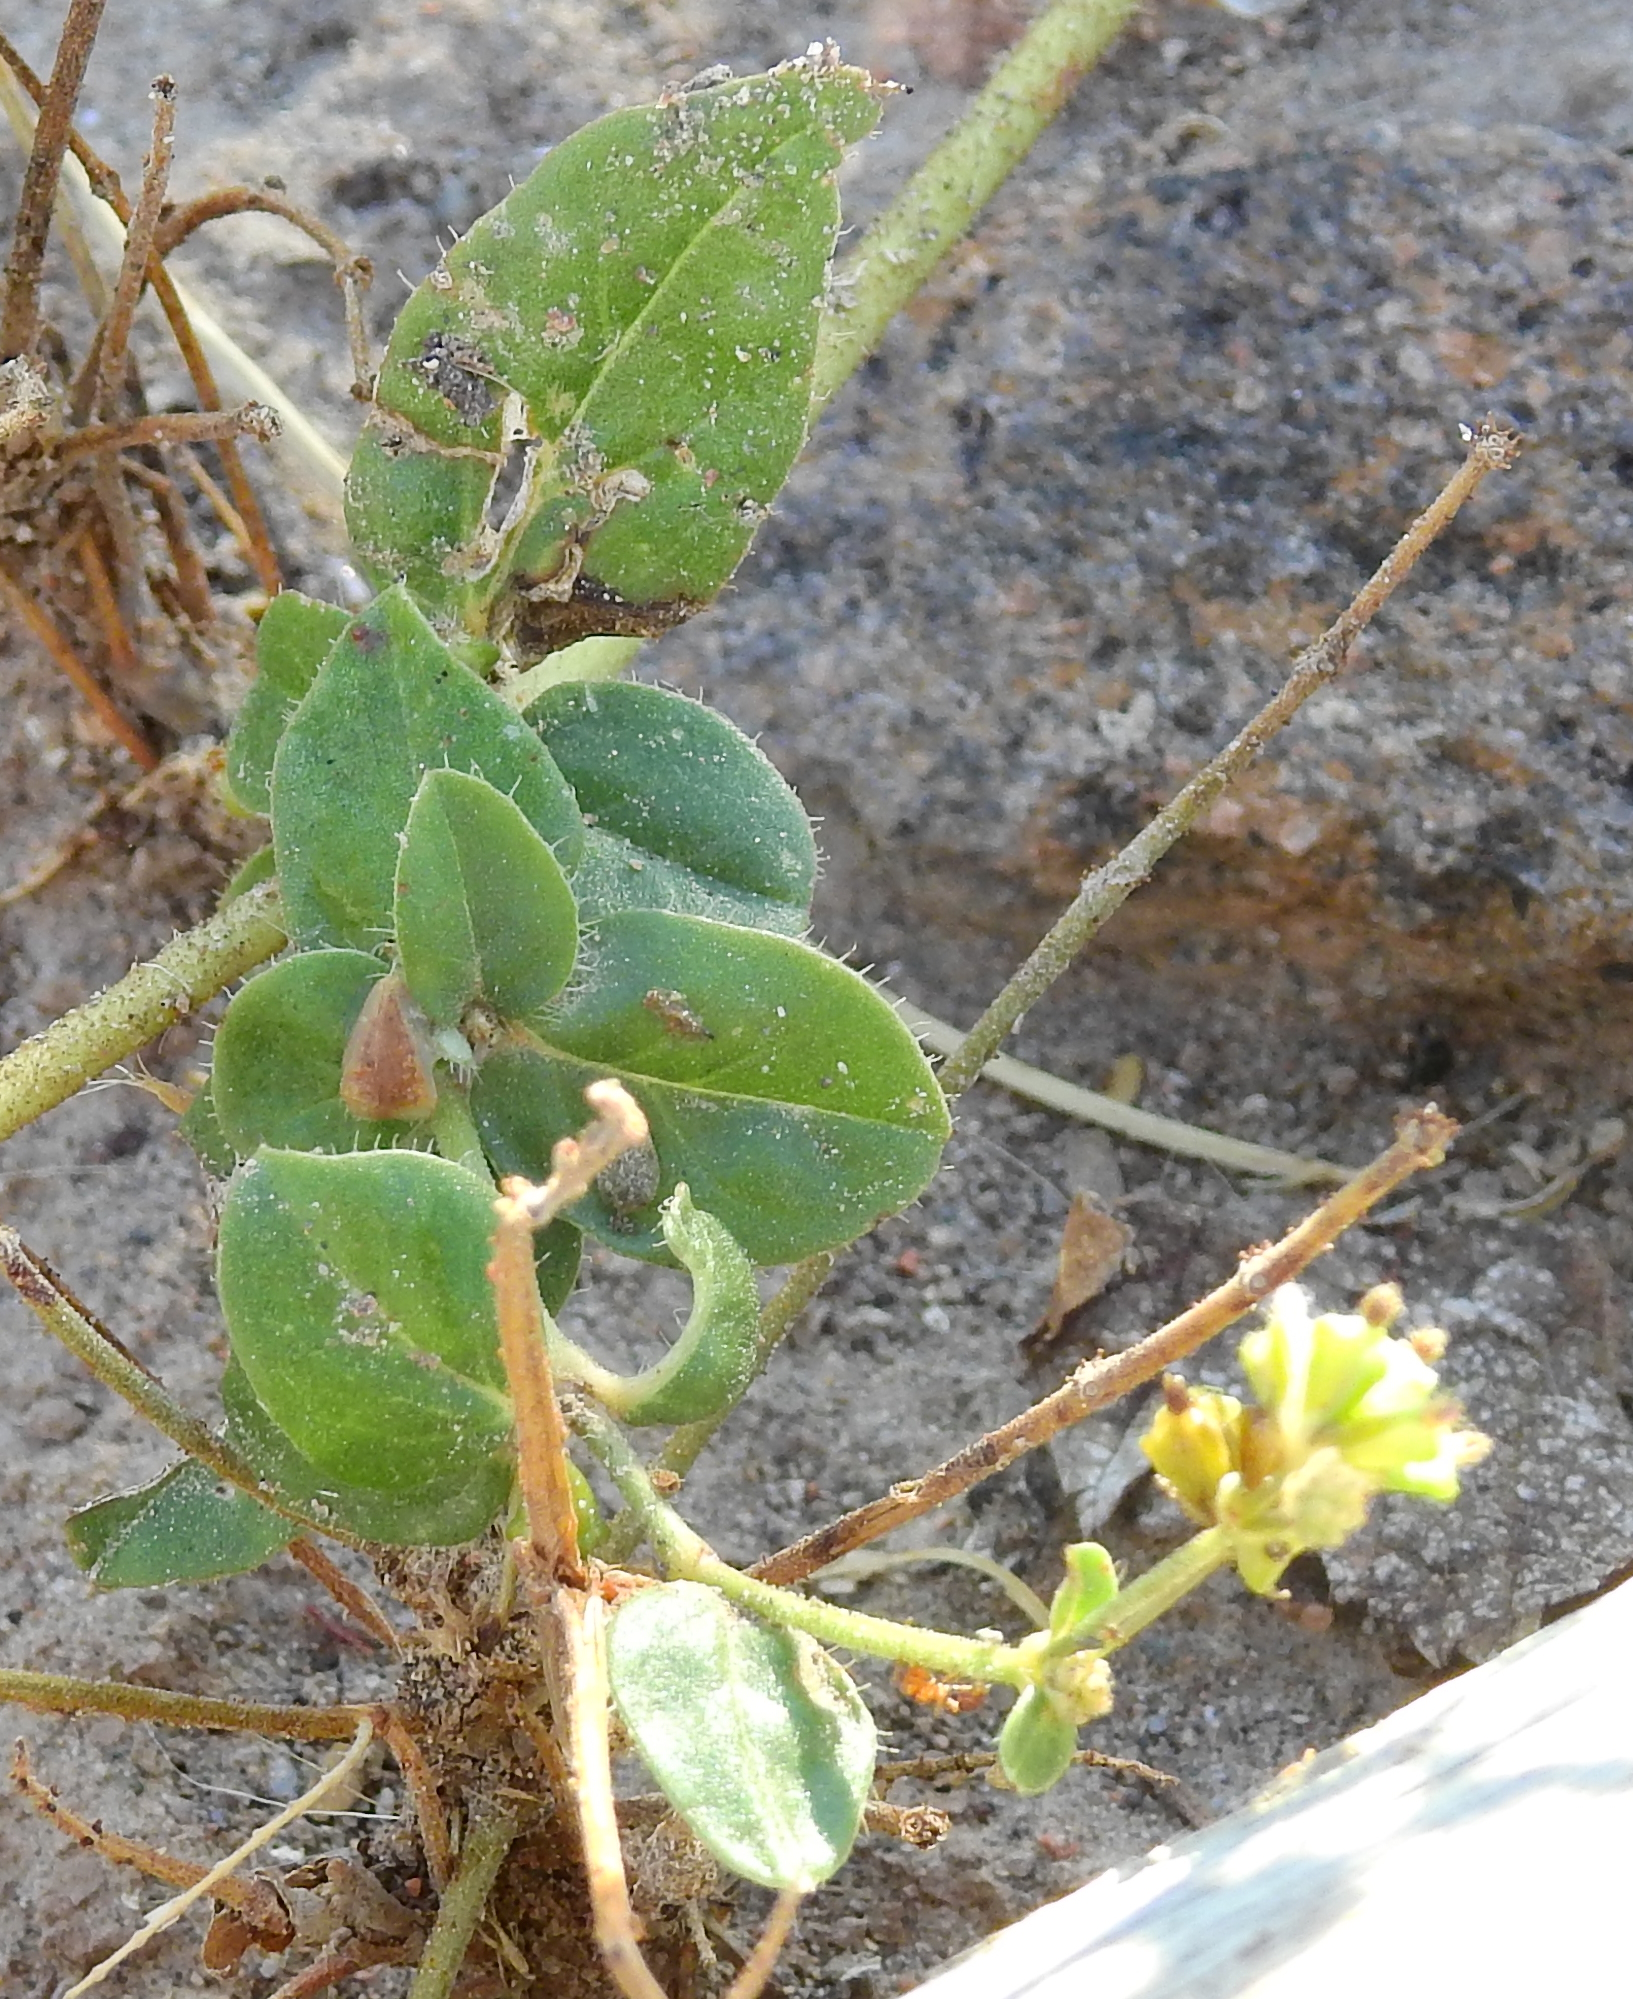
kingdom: Plantae
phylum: Tracheophyta
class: Magnoliopsida
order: Caryophyllales
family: Nyctaginaceae
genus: Boerhavia
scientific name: Boerhavia cordobensis
